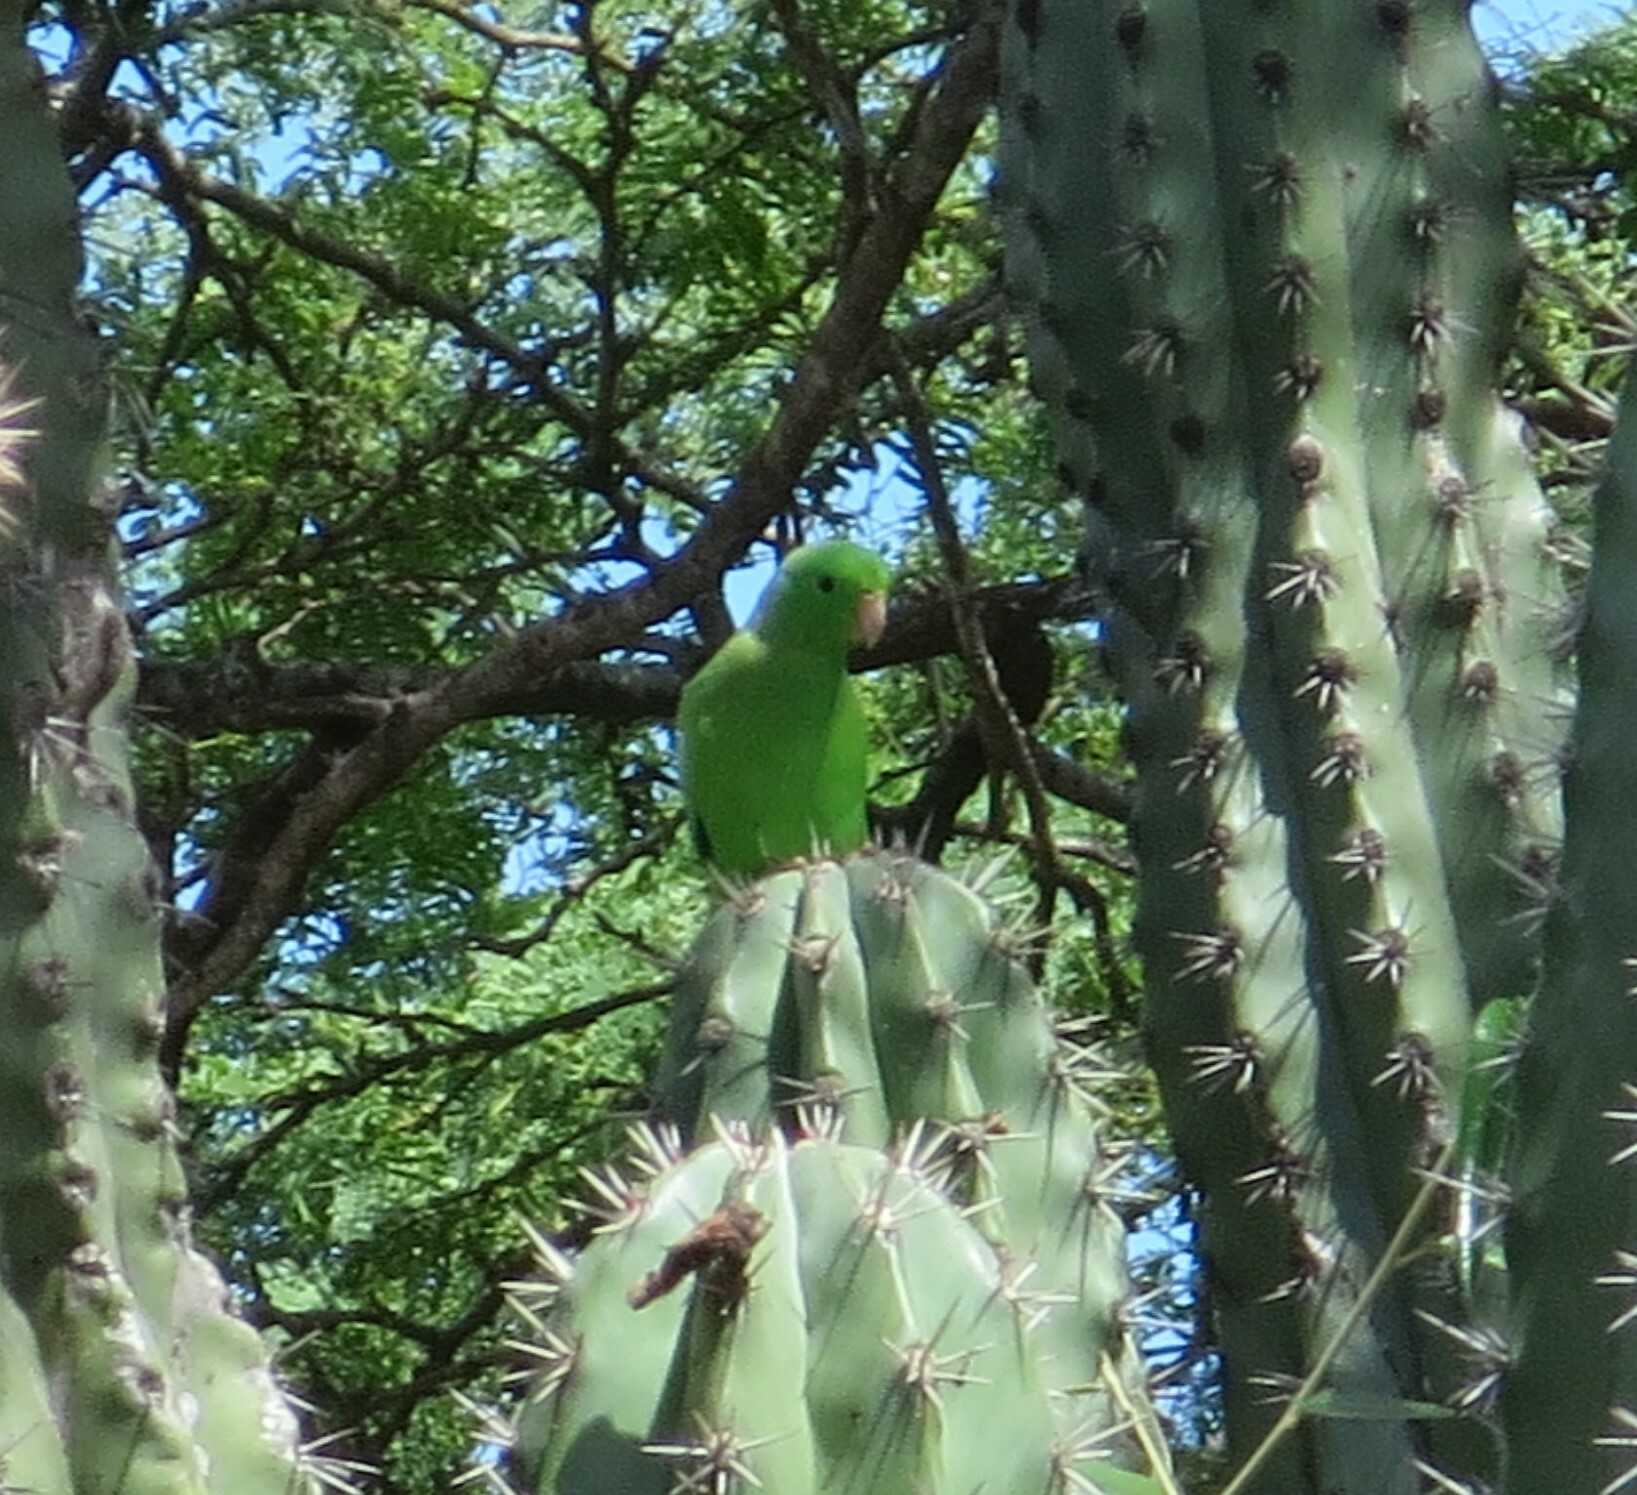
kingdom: Animalia
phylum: Chordata
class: Aves
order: Psittaciformes
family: Psittacidae
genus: Forpus
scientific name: Forpus passerinus
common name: Green-rumped parrotlet
